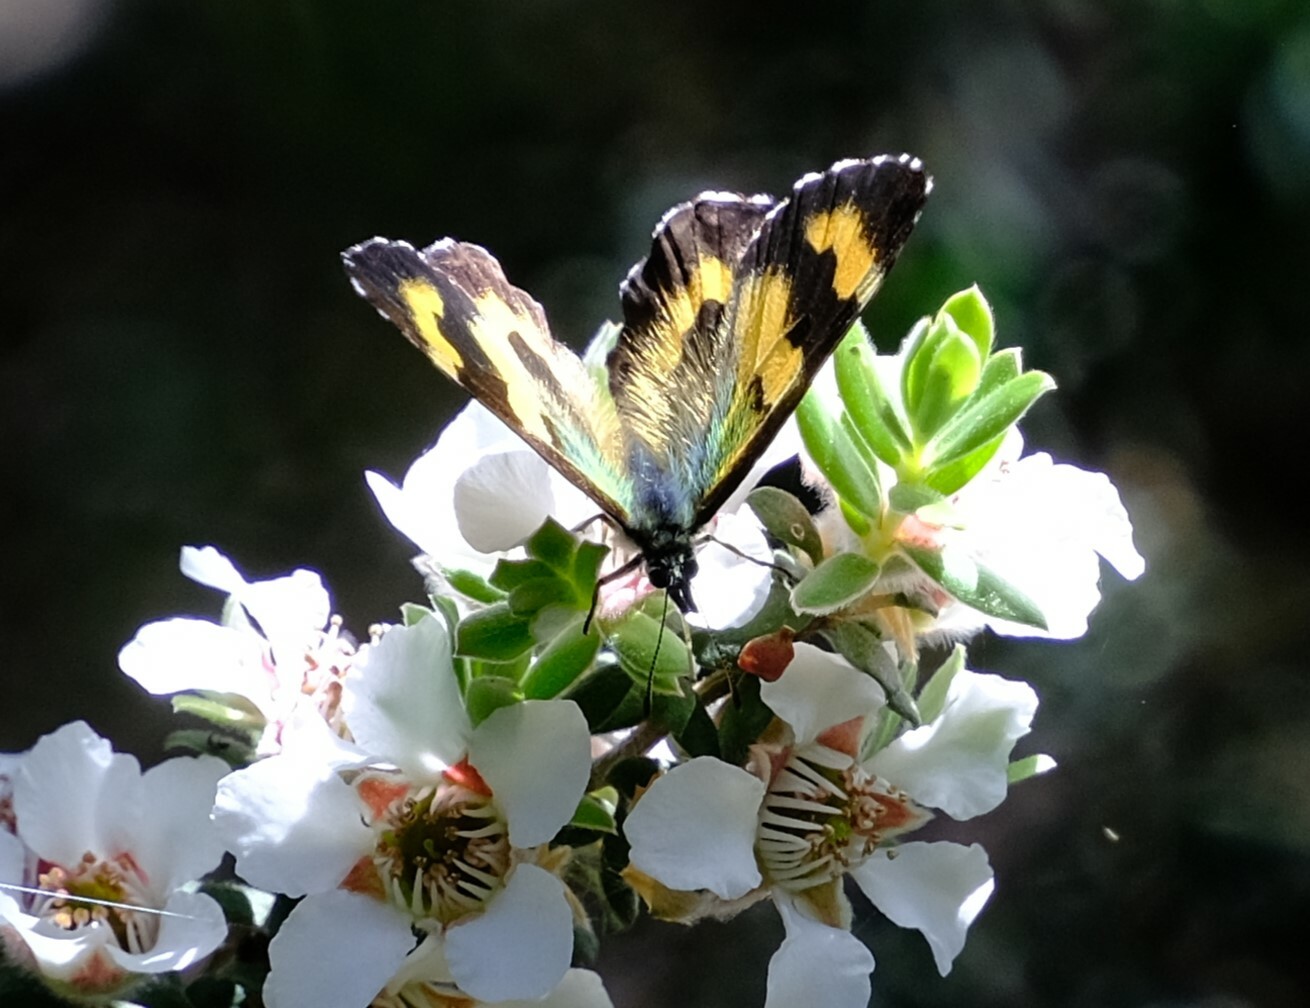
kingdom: Animalia
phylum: Arthropoda
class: Insecta
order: Lepidoptera
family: Nymphalidae
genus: Nesoxenica
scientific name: Nesoxenica leprea
